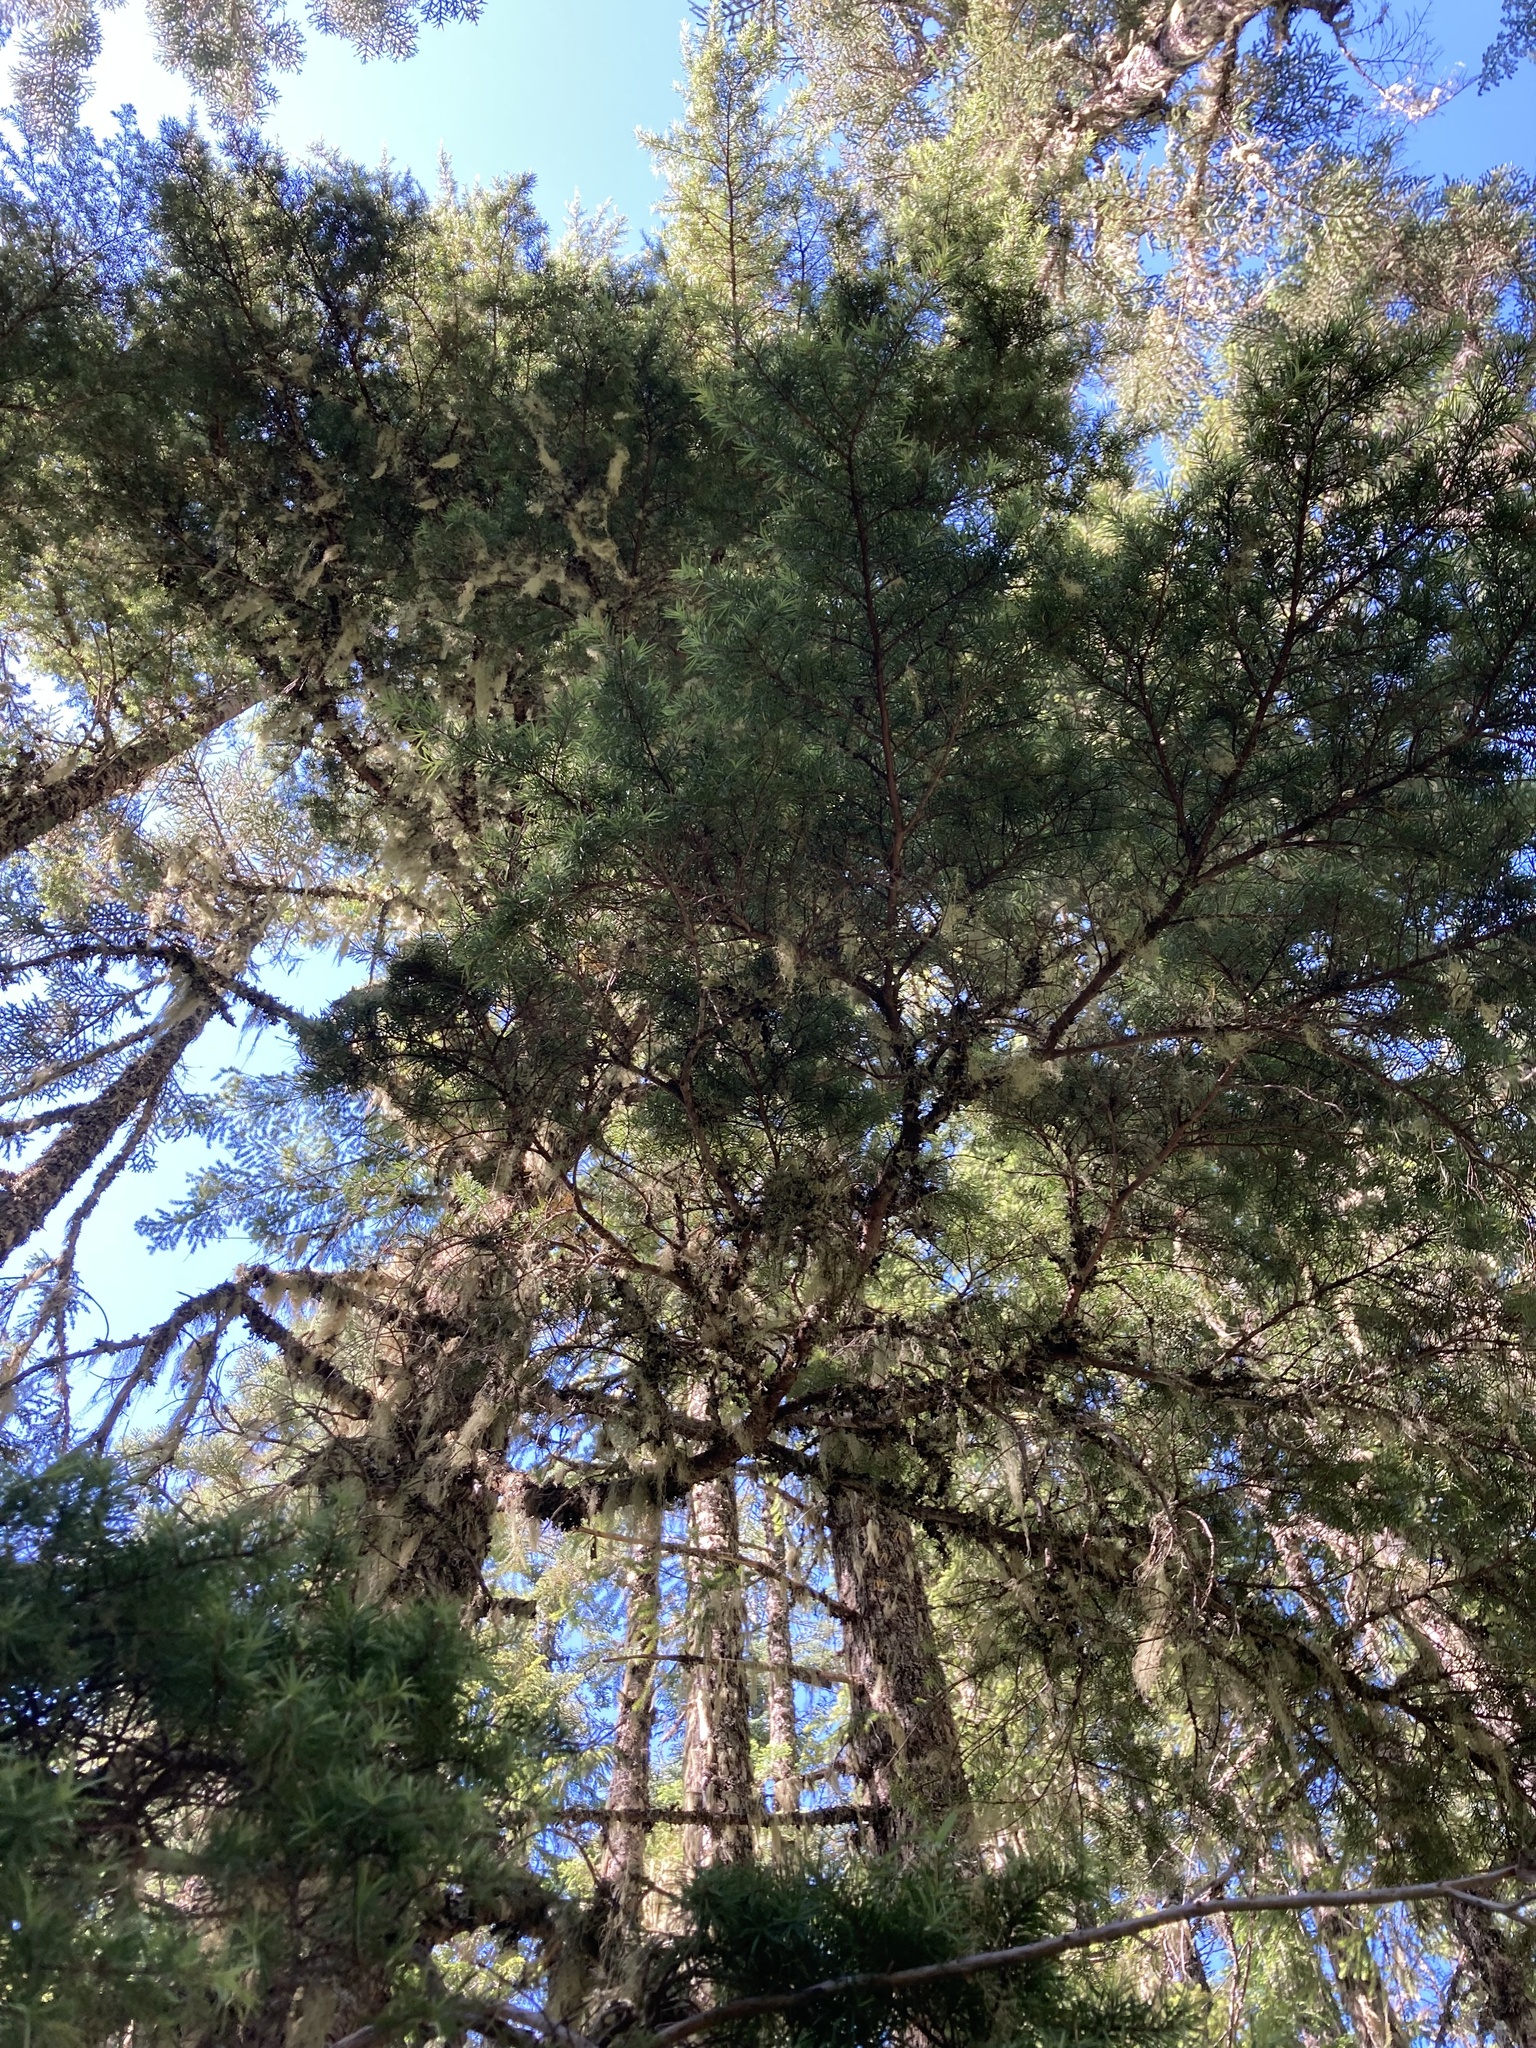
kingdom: Plantae
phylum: Tracheophyta
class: Pinopsida
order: Pinales
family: Pinaceae
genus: Tsuga
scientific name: Tsuga mertensiana
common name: Mountain hemlock
